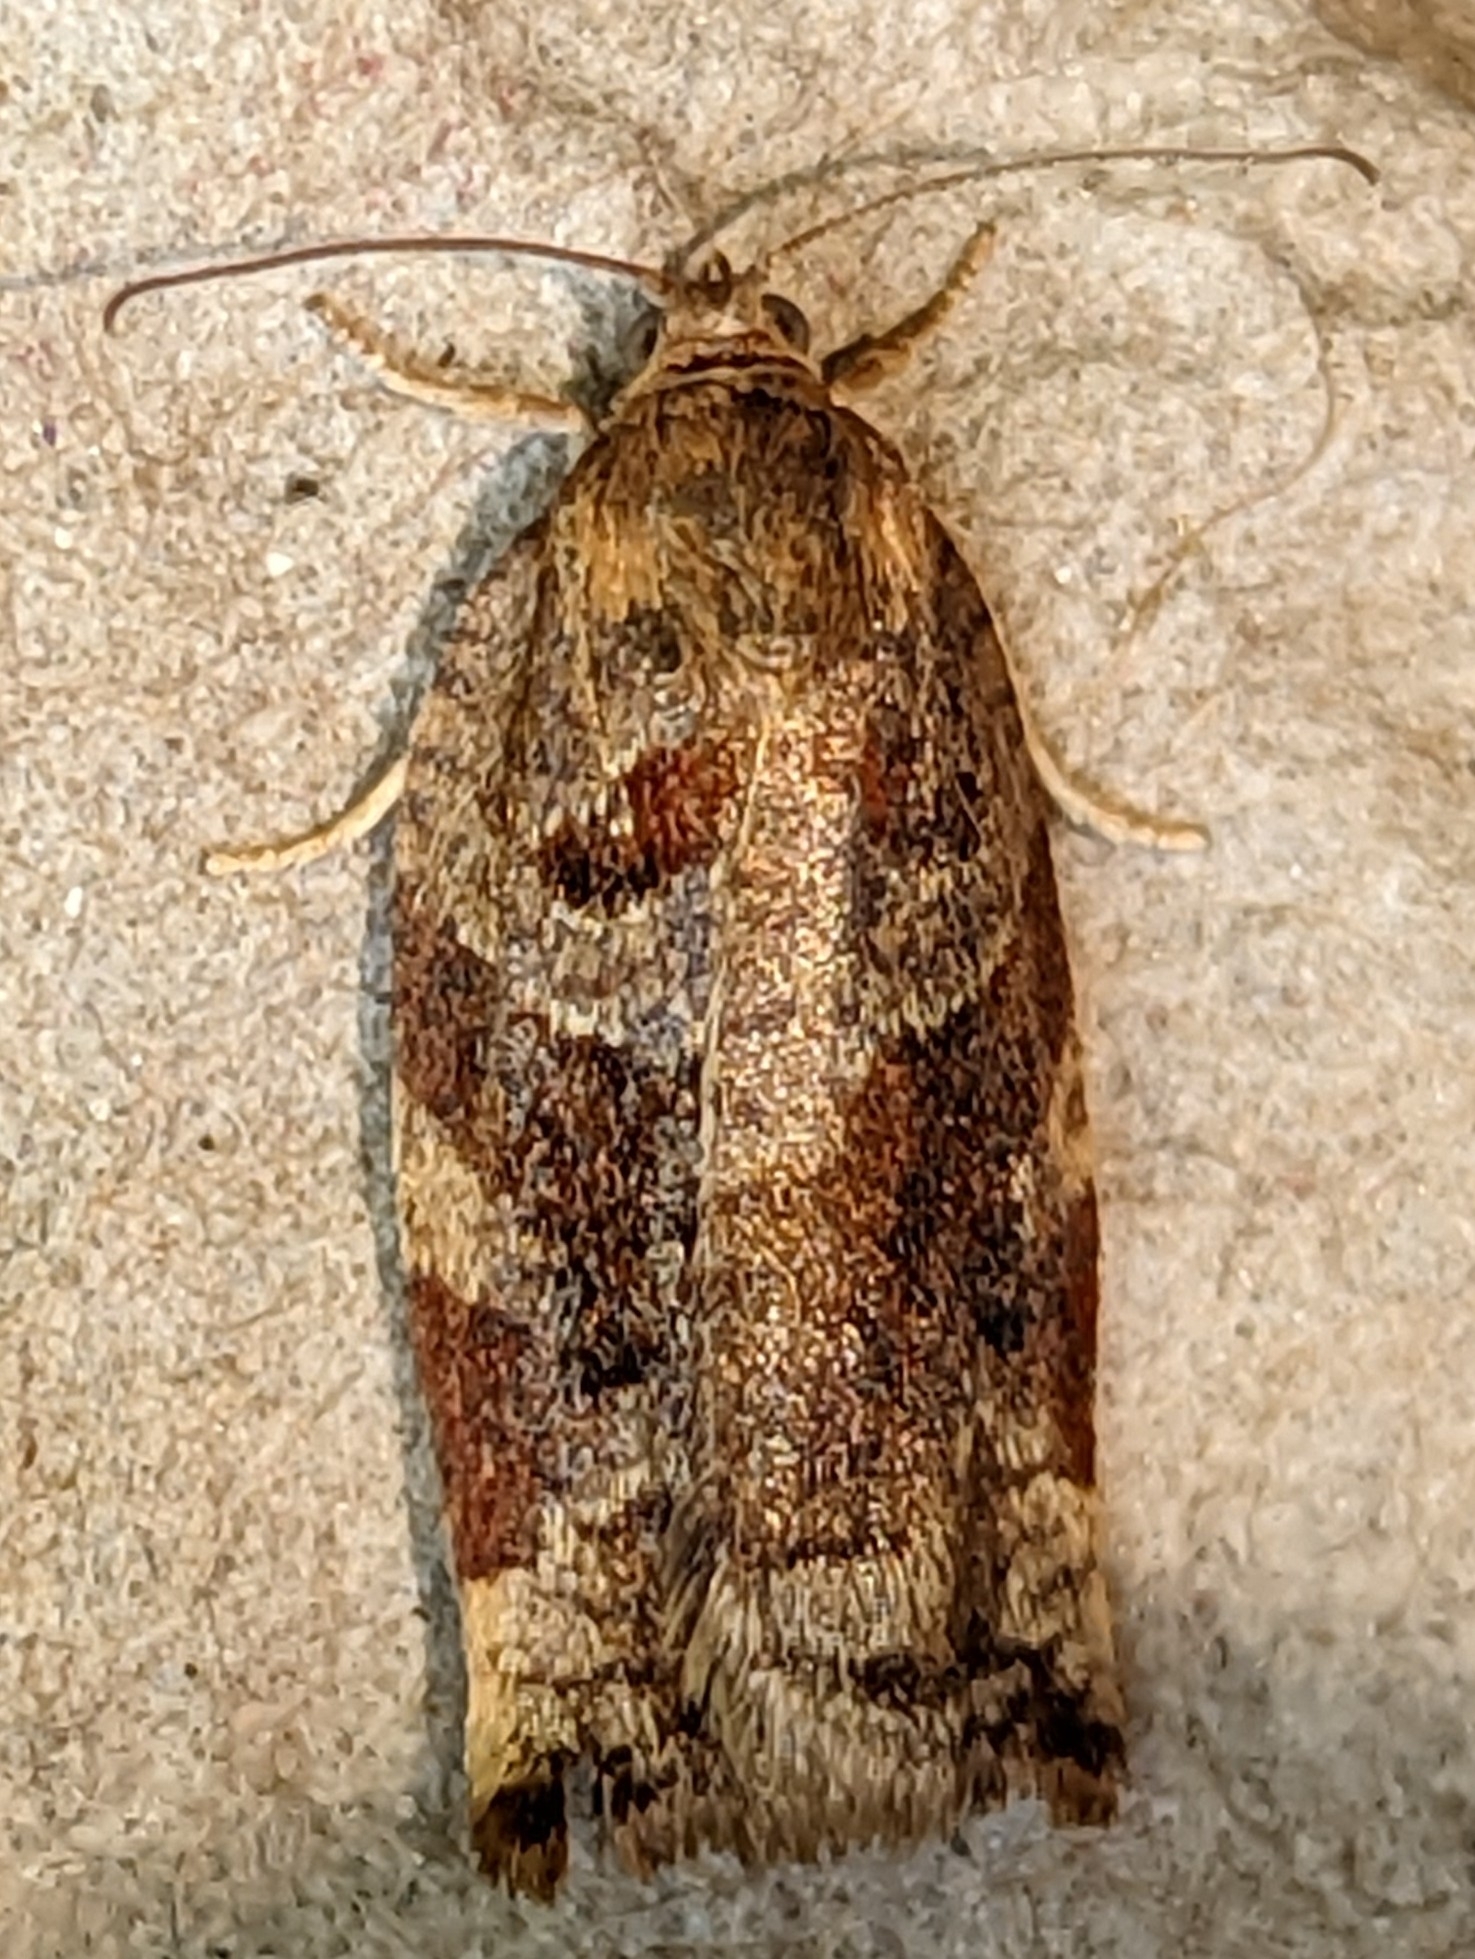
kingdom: Animalia
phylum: Arthropoda
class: Insecta
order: Lepidoptera
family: Tortricidae
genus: Archips
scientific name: Archips xylosteana
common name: Variegated golden tortrix
